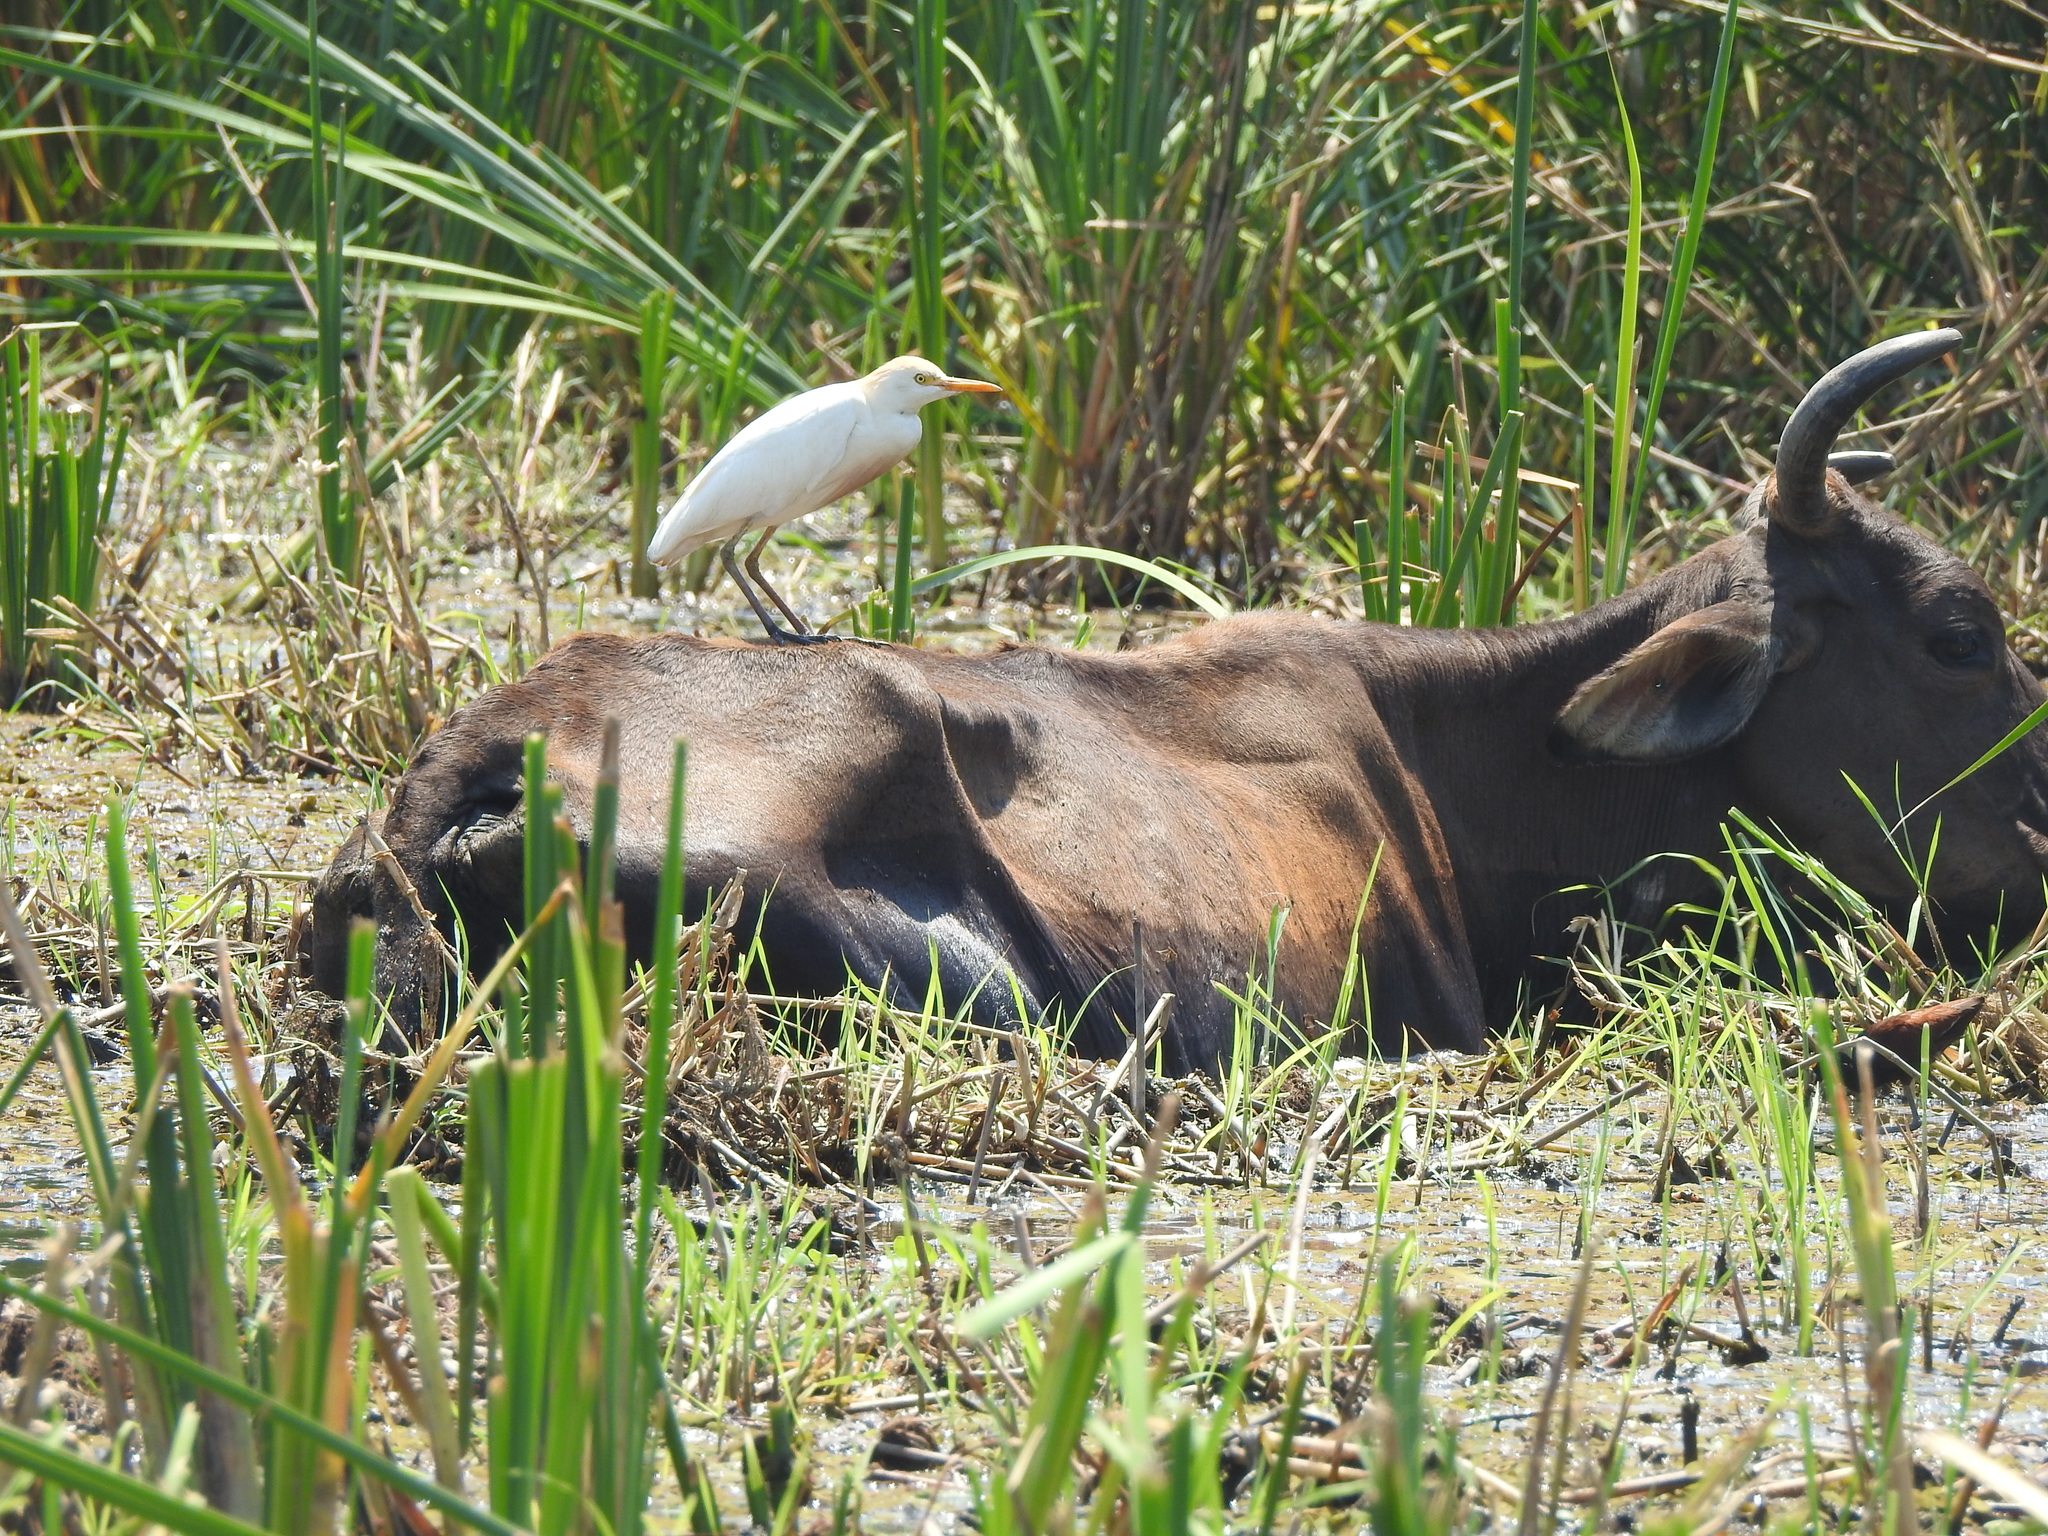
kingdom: Animalia
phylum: Chordata
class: Aves
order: Pelecaniformes
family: Ardeidae
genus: Bubulcus
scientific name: Bubulcus ibis
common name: Cattle egret
